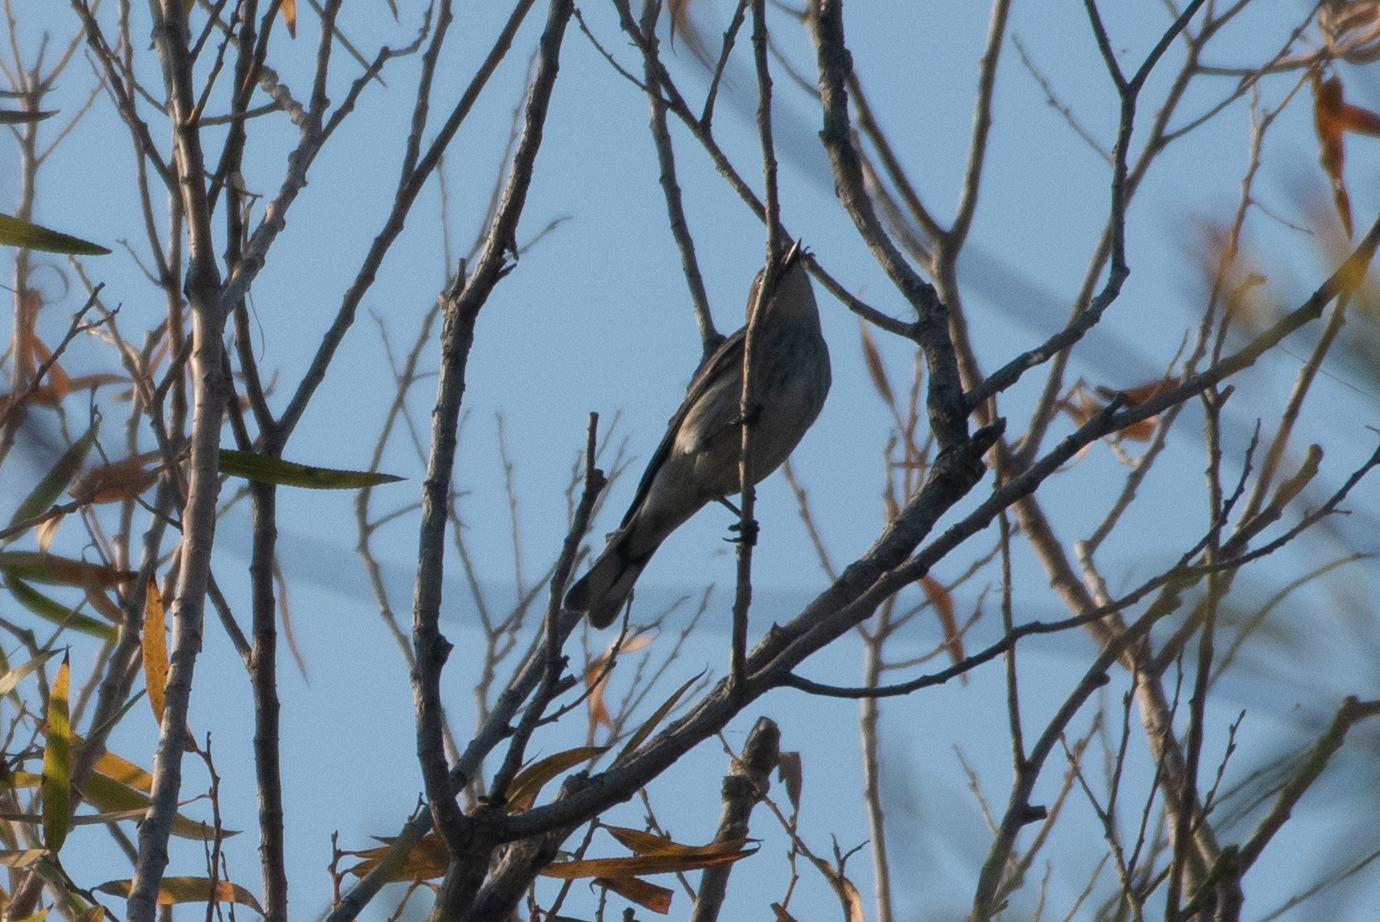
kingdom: Animalia
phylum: Chordata
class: Aves
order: Passeriformes
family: Parulidae
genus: Setophaga
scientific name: Setophaga coronata
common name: Myrtle warbler
